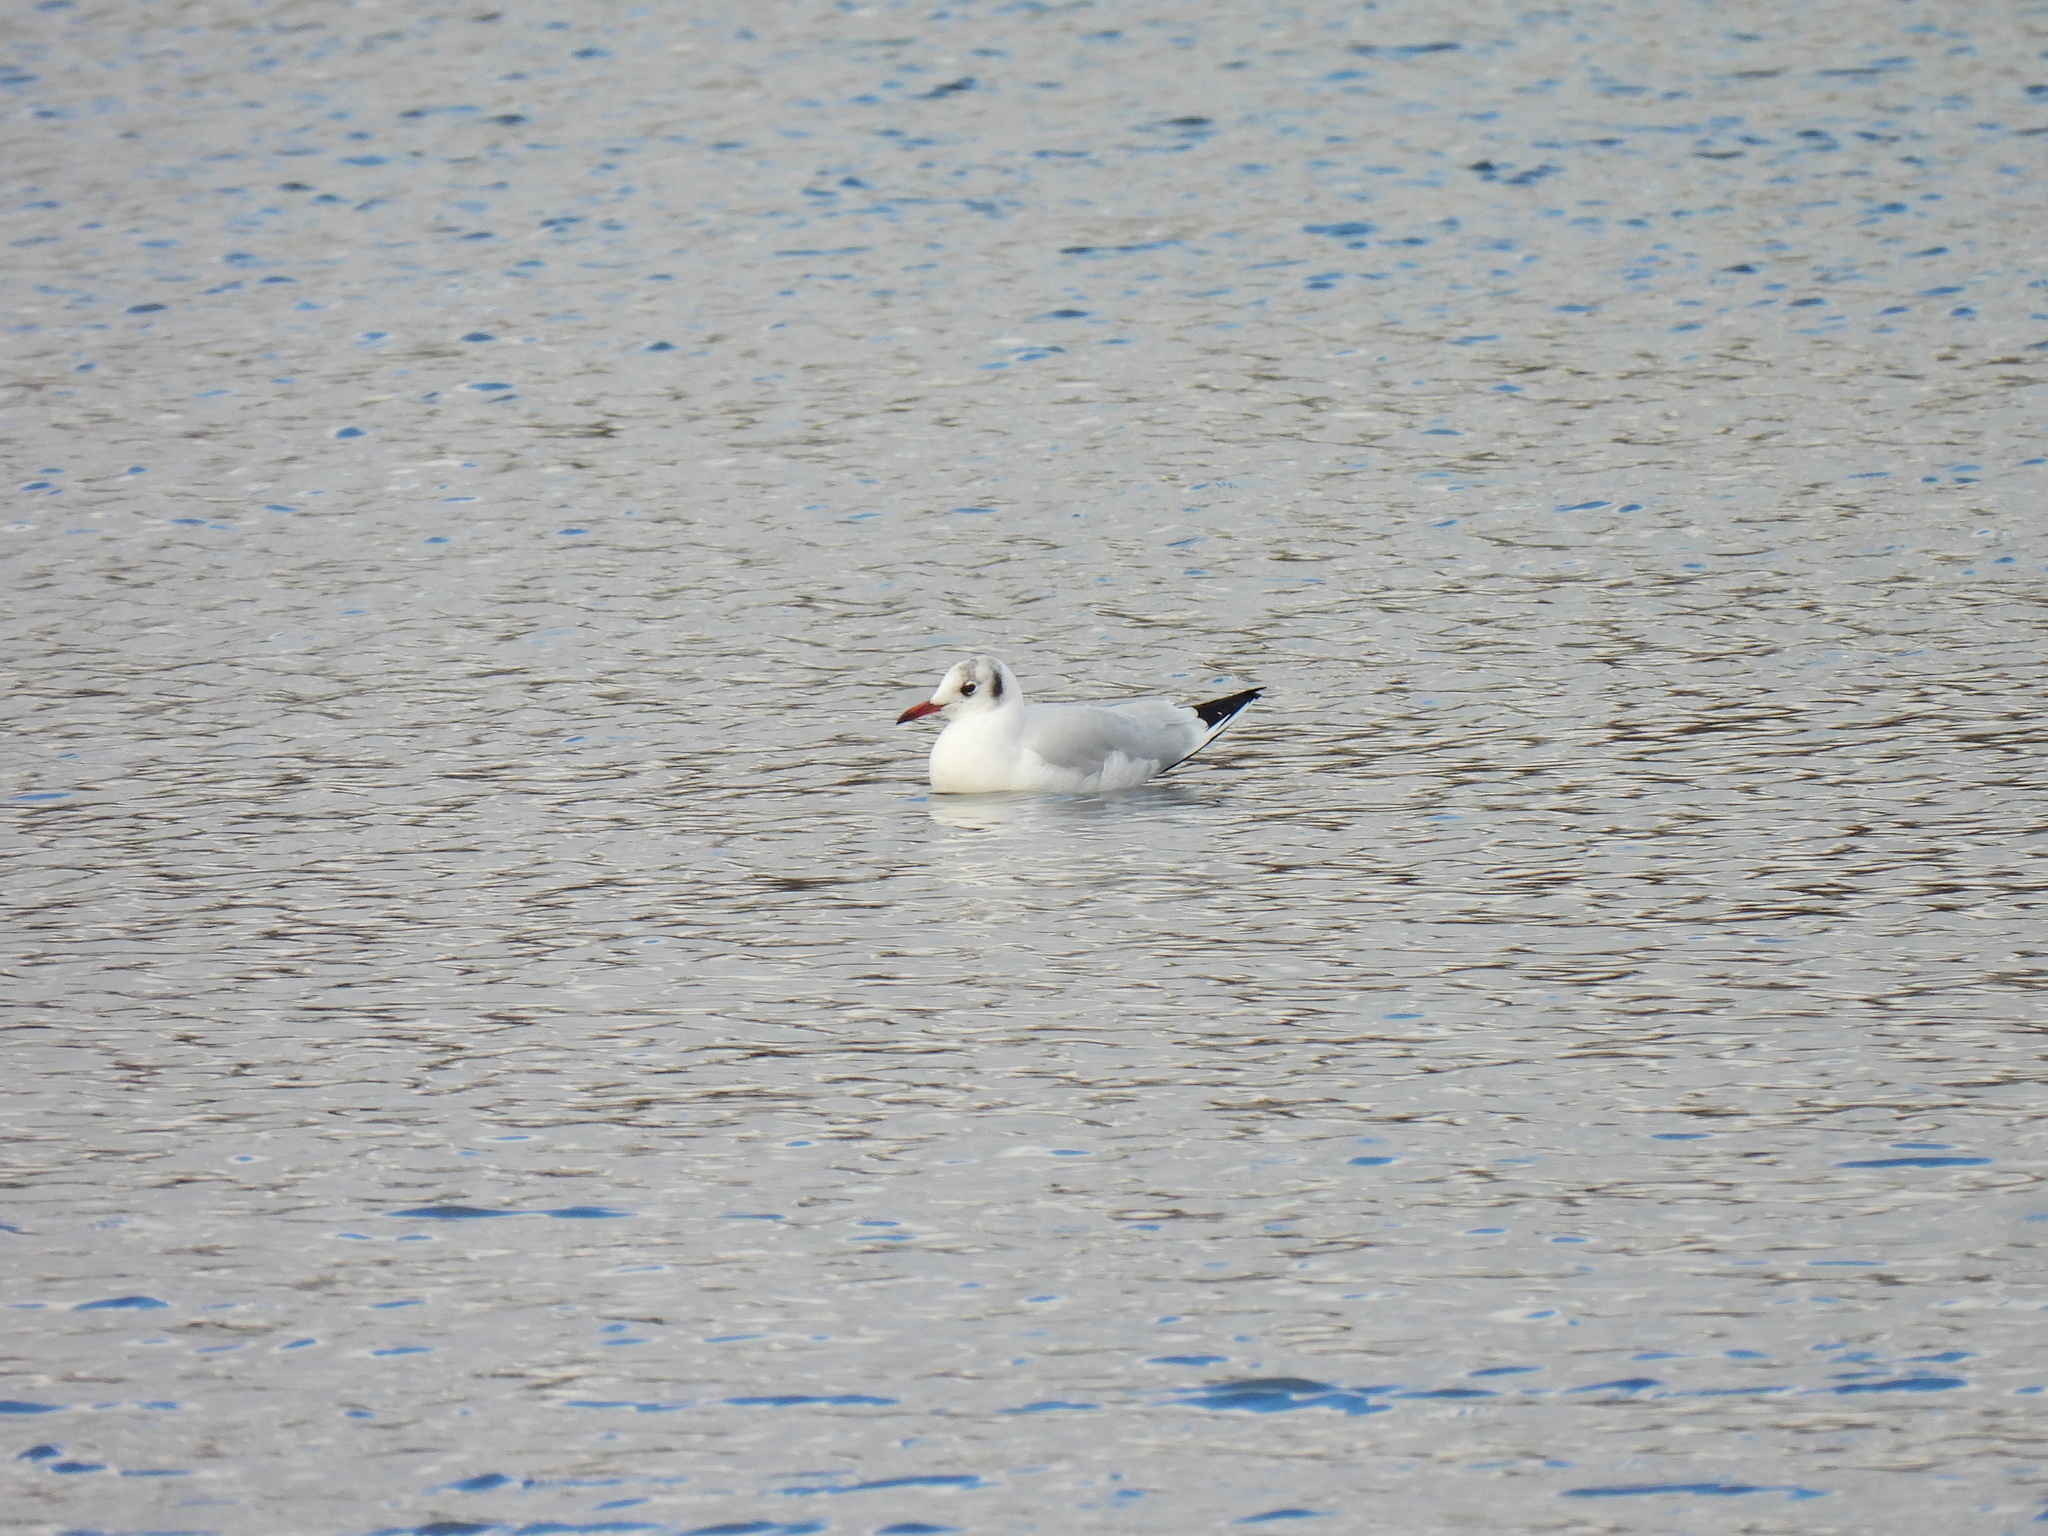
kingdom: Animalia
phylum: Chordata
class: Aves
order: Charadriiformes
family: Laridae
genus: Chroicocephalus
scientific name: Chroicocephalus ridibundus
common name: Black-headed gull
